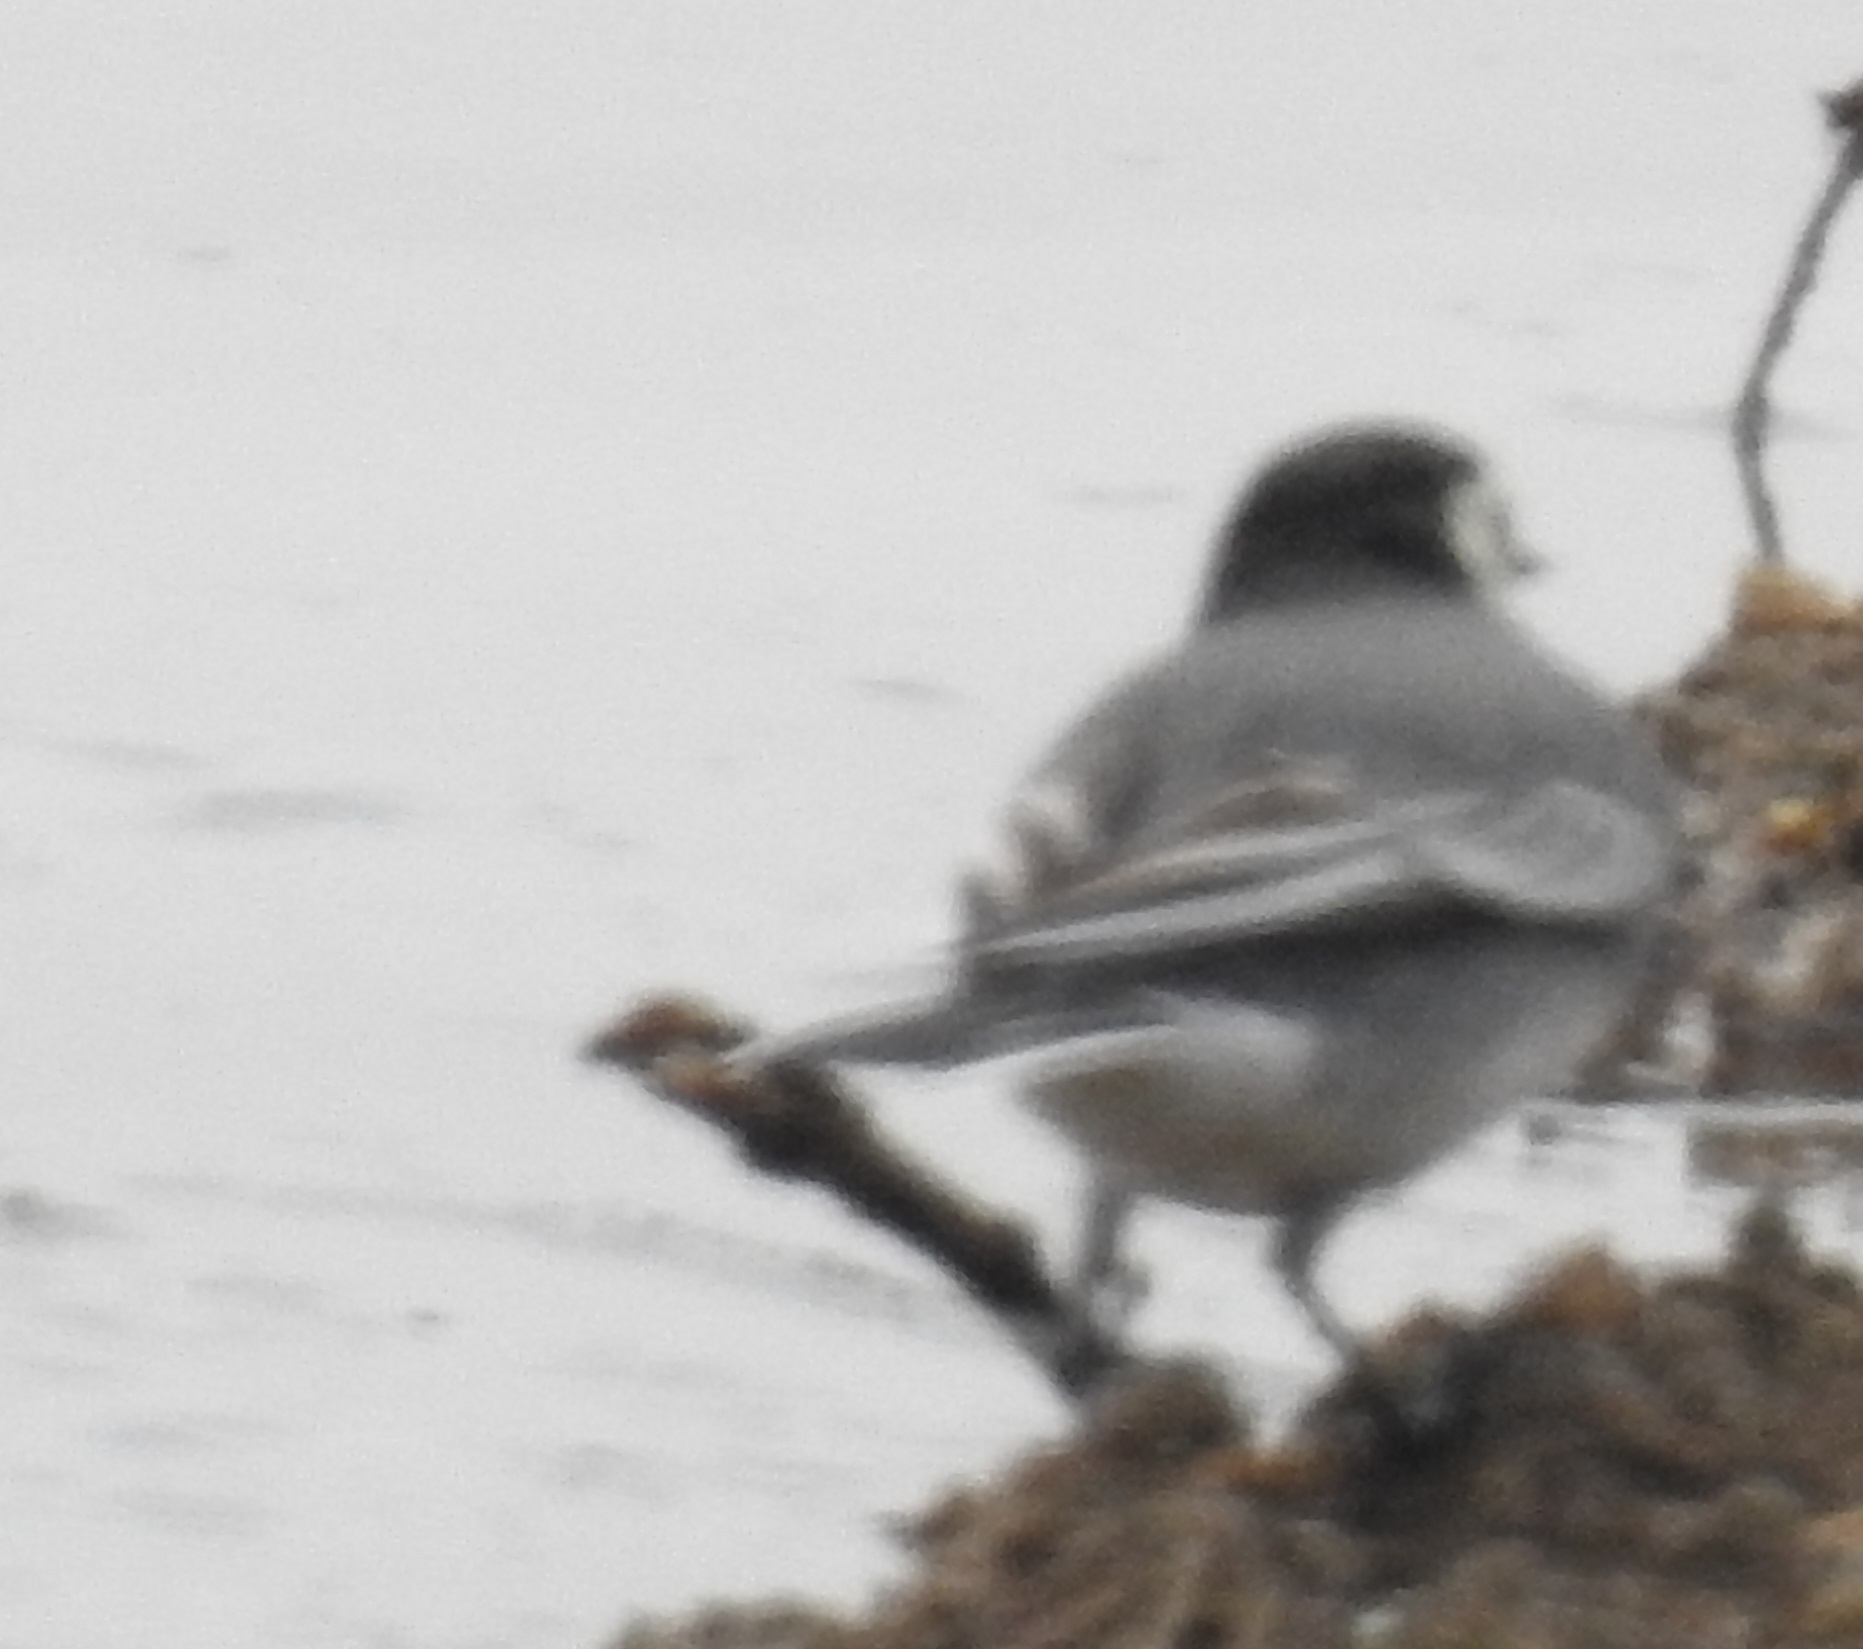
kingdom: Animalia
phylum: Chordata
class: Aves
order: Passeriformes
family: Motacillidae
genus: Motacilla
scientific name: Motacilla alba
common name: White wagtail
